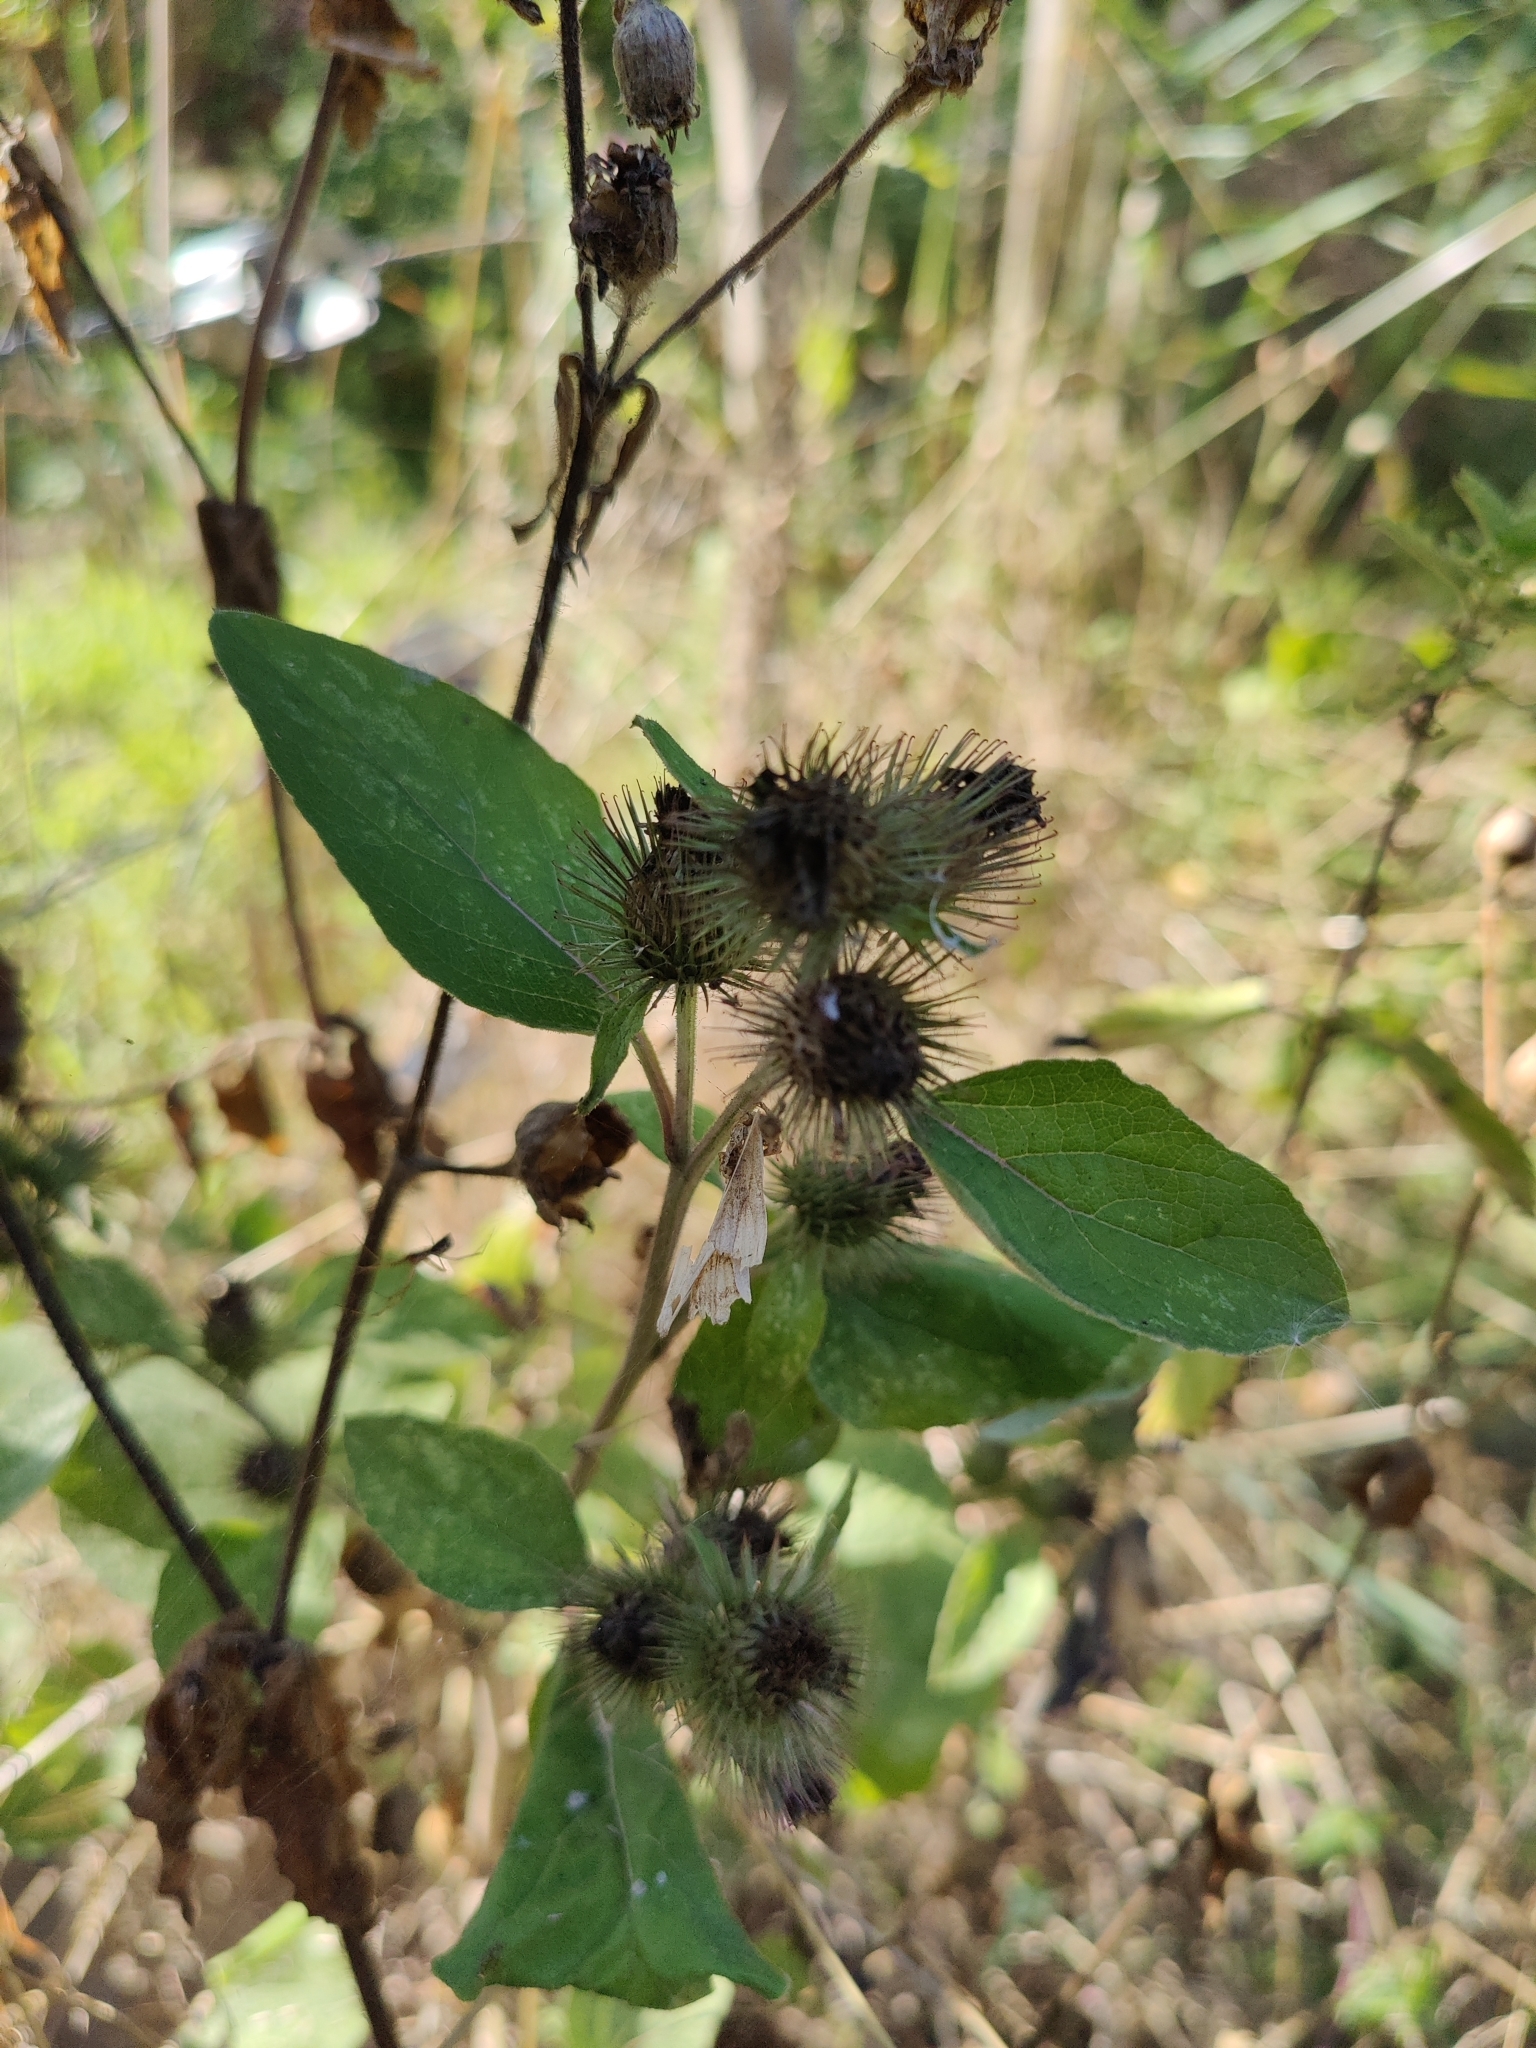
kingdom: Plantae
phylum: Tracheophyta
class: Magnoliopsida
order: Asterales
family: Asteraceae
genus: Arctium
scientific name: Arctium minus
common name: Lesser burdock
